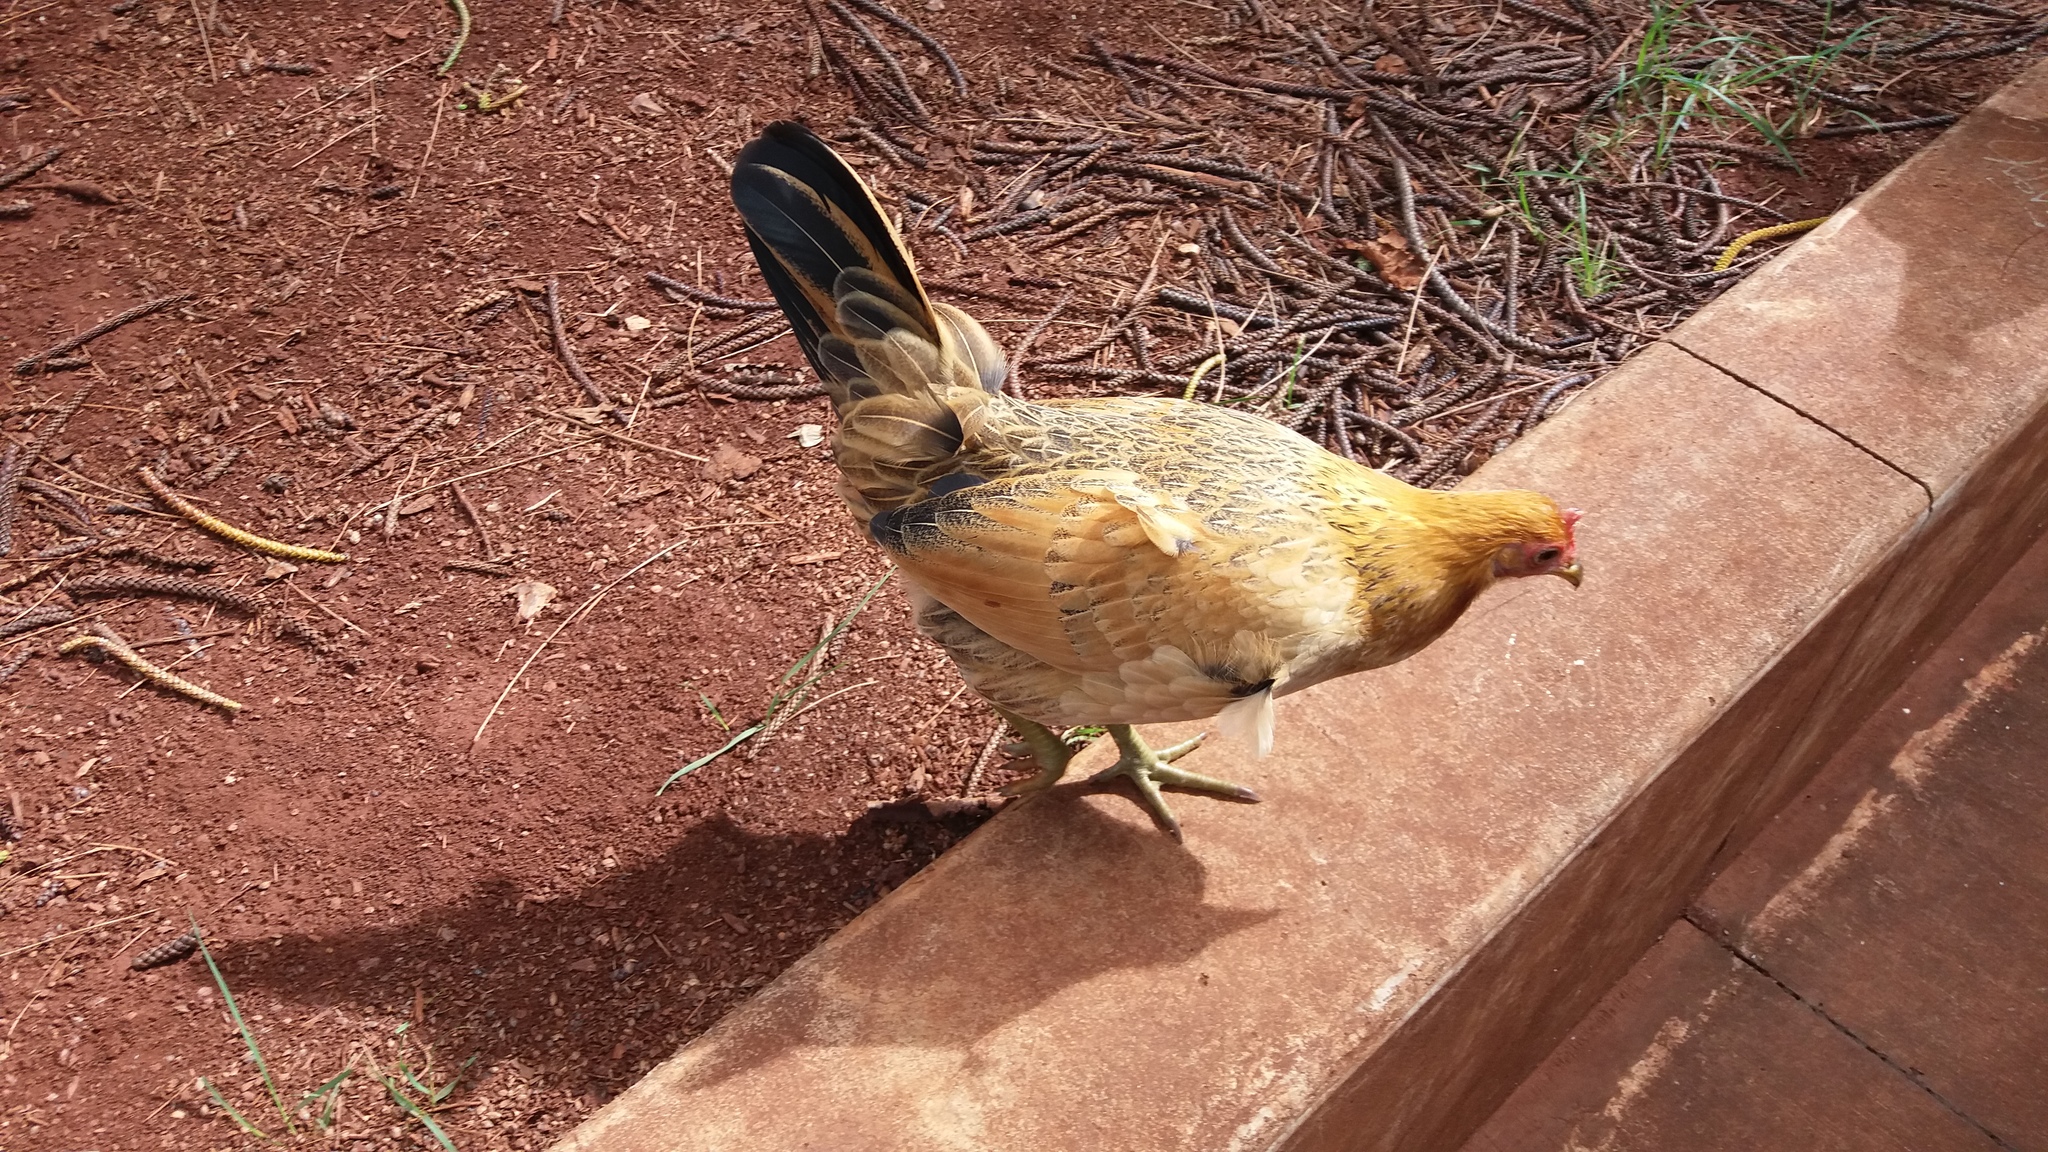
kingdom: Animalia
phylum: Chordata
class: Aves
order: Galliformes
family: Phasianidae
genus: Gallus
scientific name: Gallus gallus
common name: Red junglefowl
